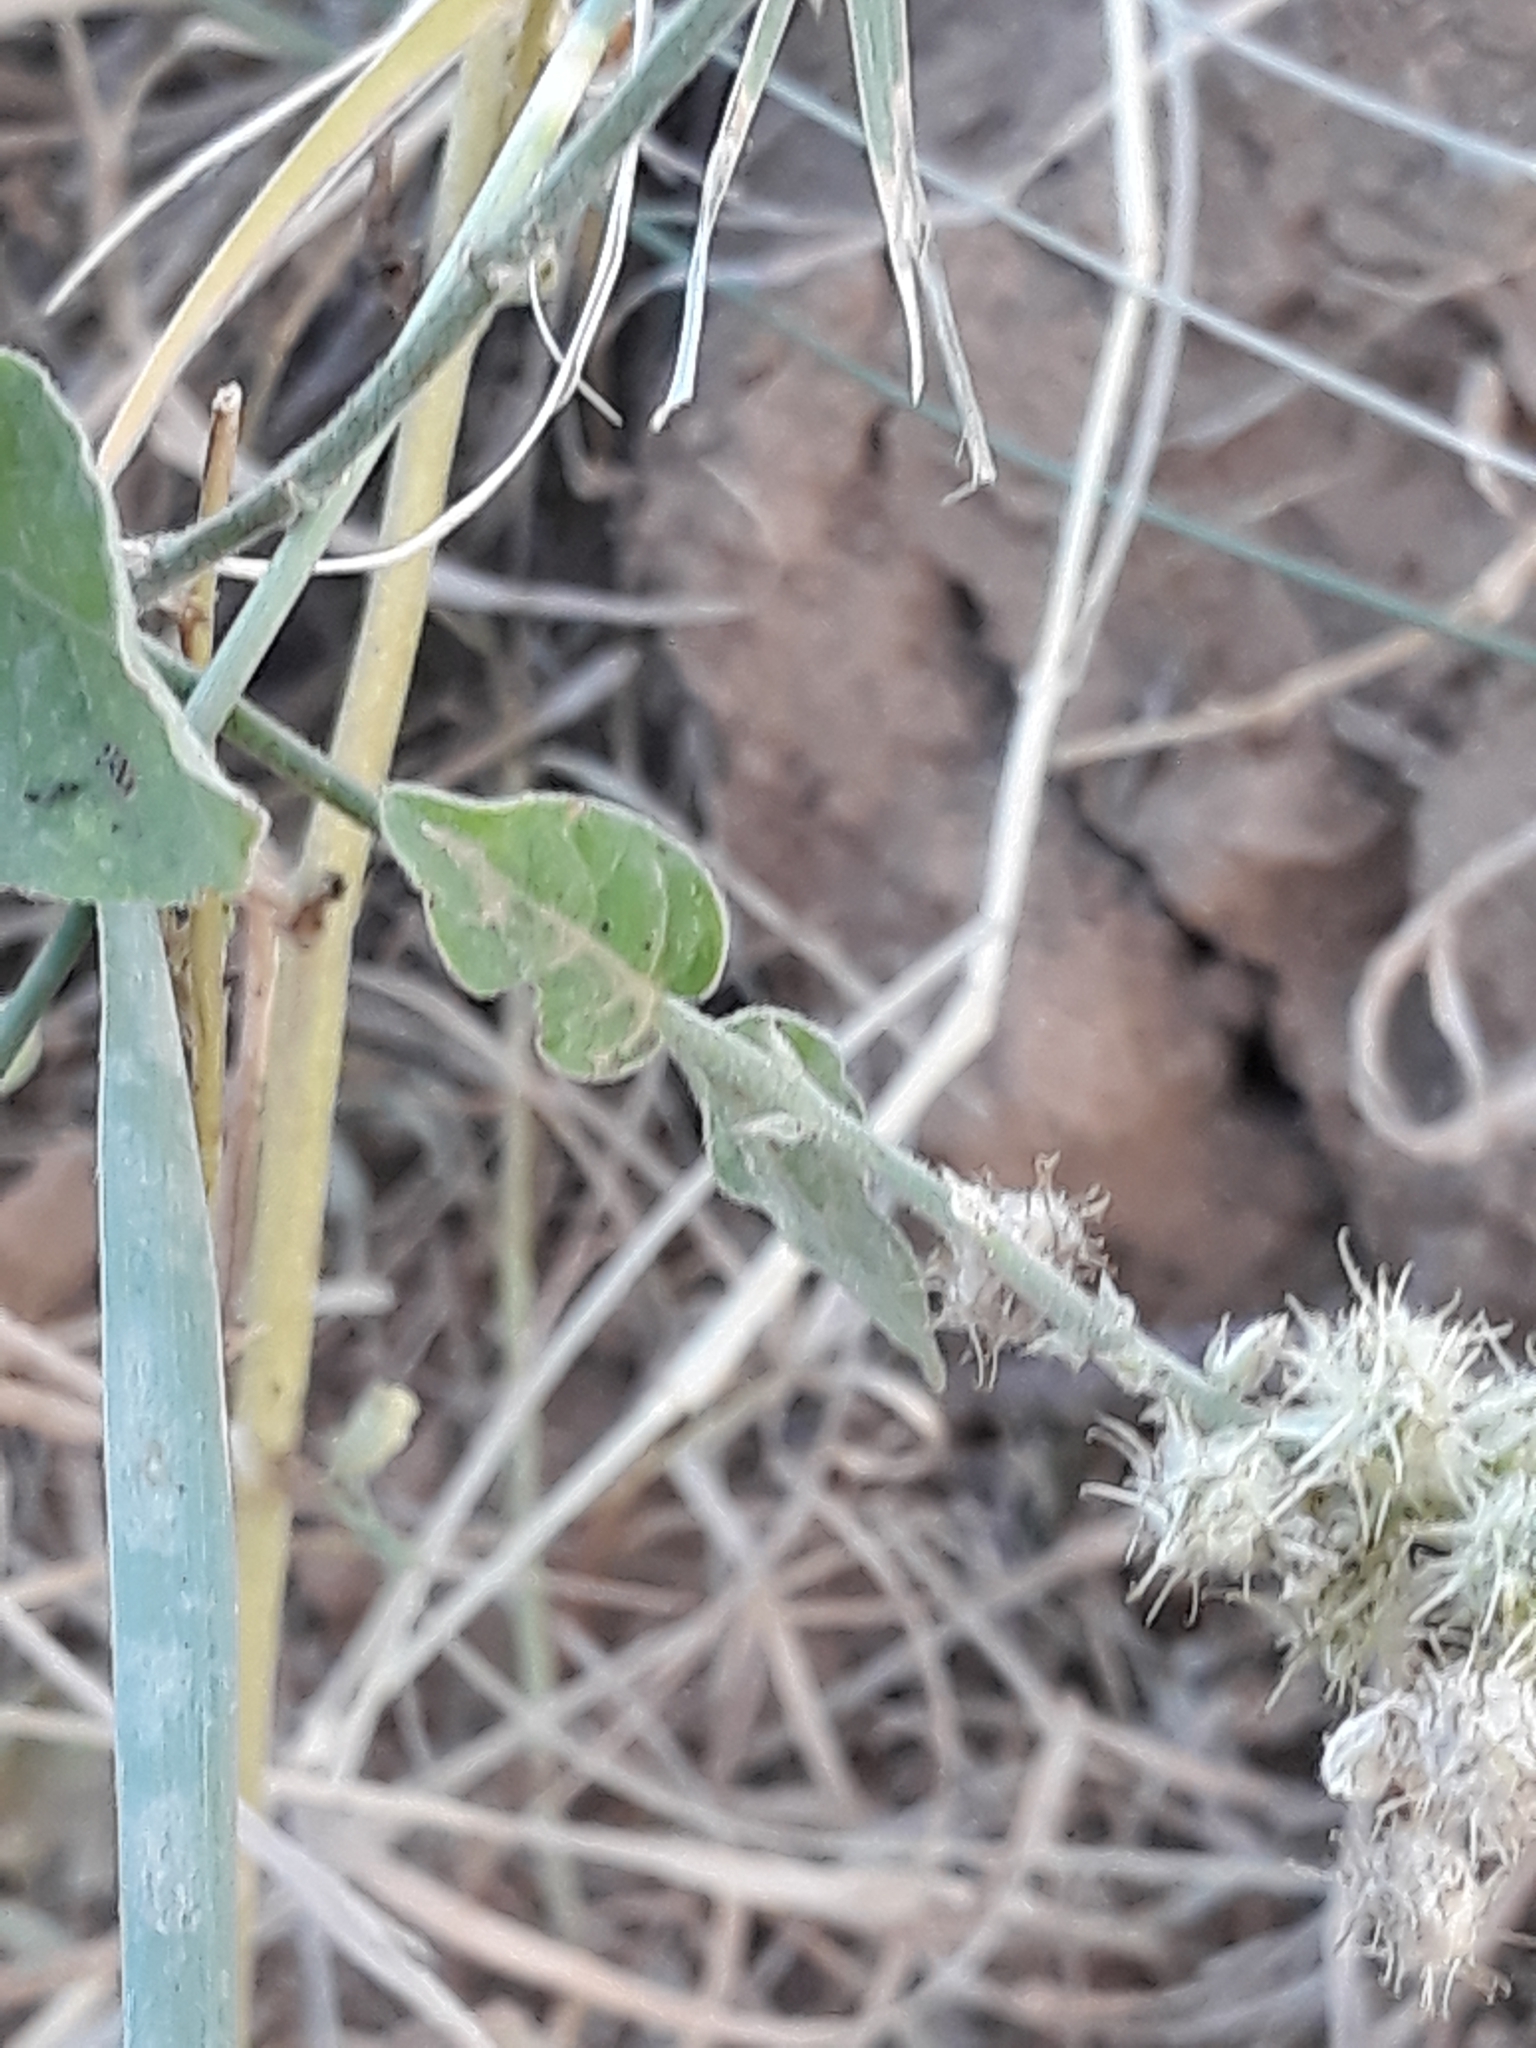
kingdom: Plantae
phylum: Tracheophyta
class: Magnoliopsida
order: Caryophyllales
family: Amaranthaceae
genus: Pupalia
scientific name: Pupalia lappacea
